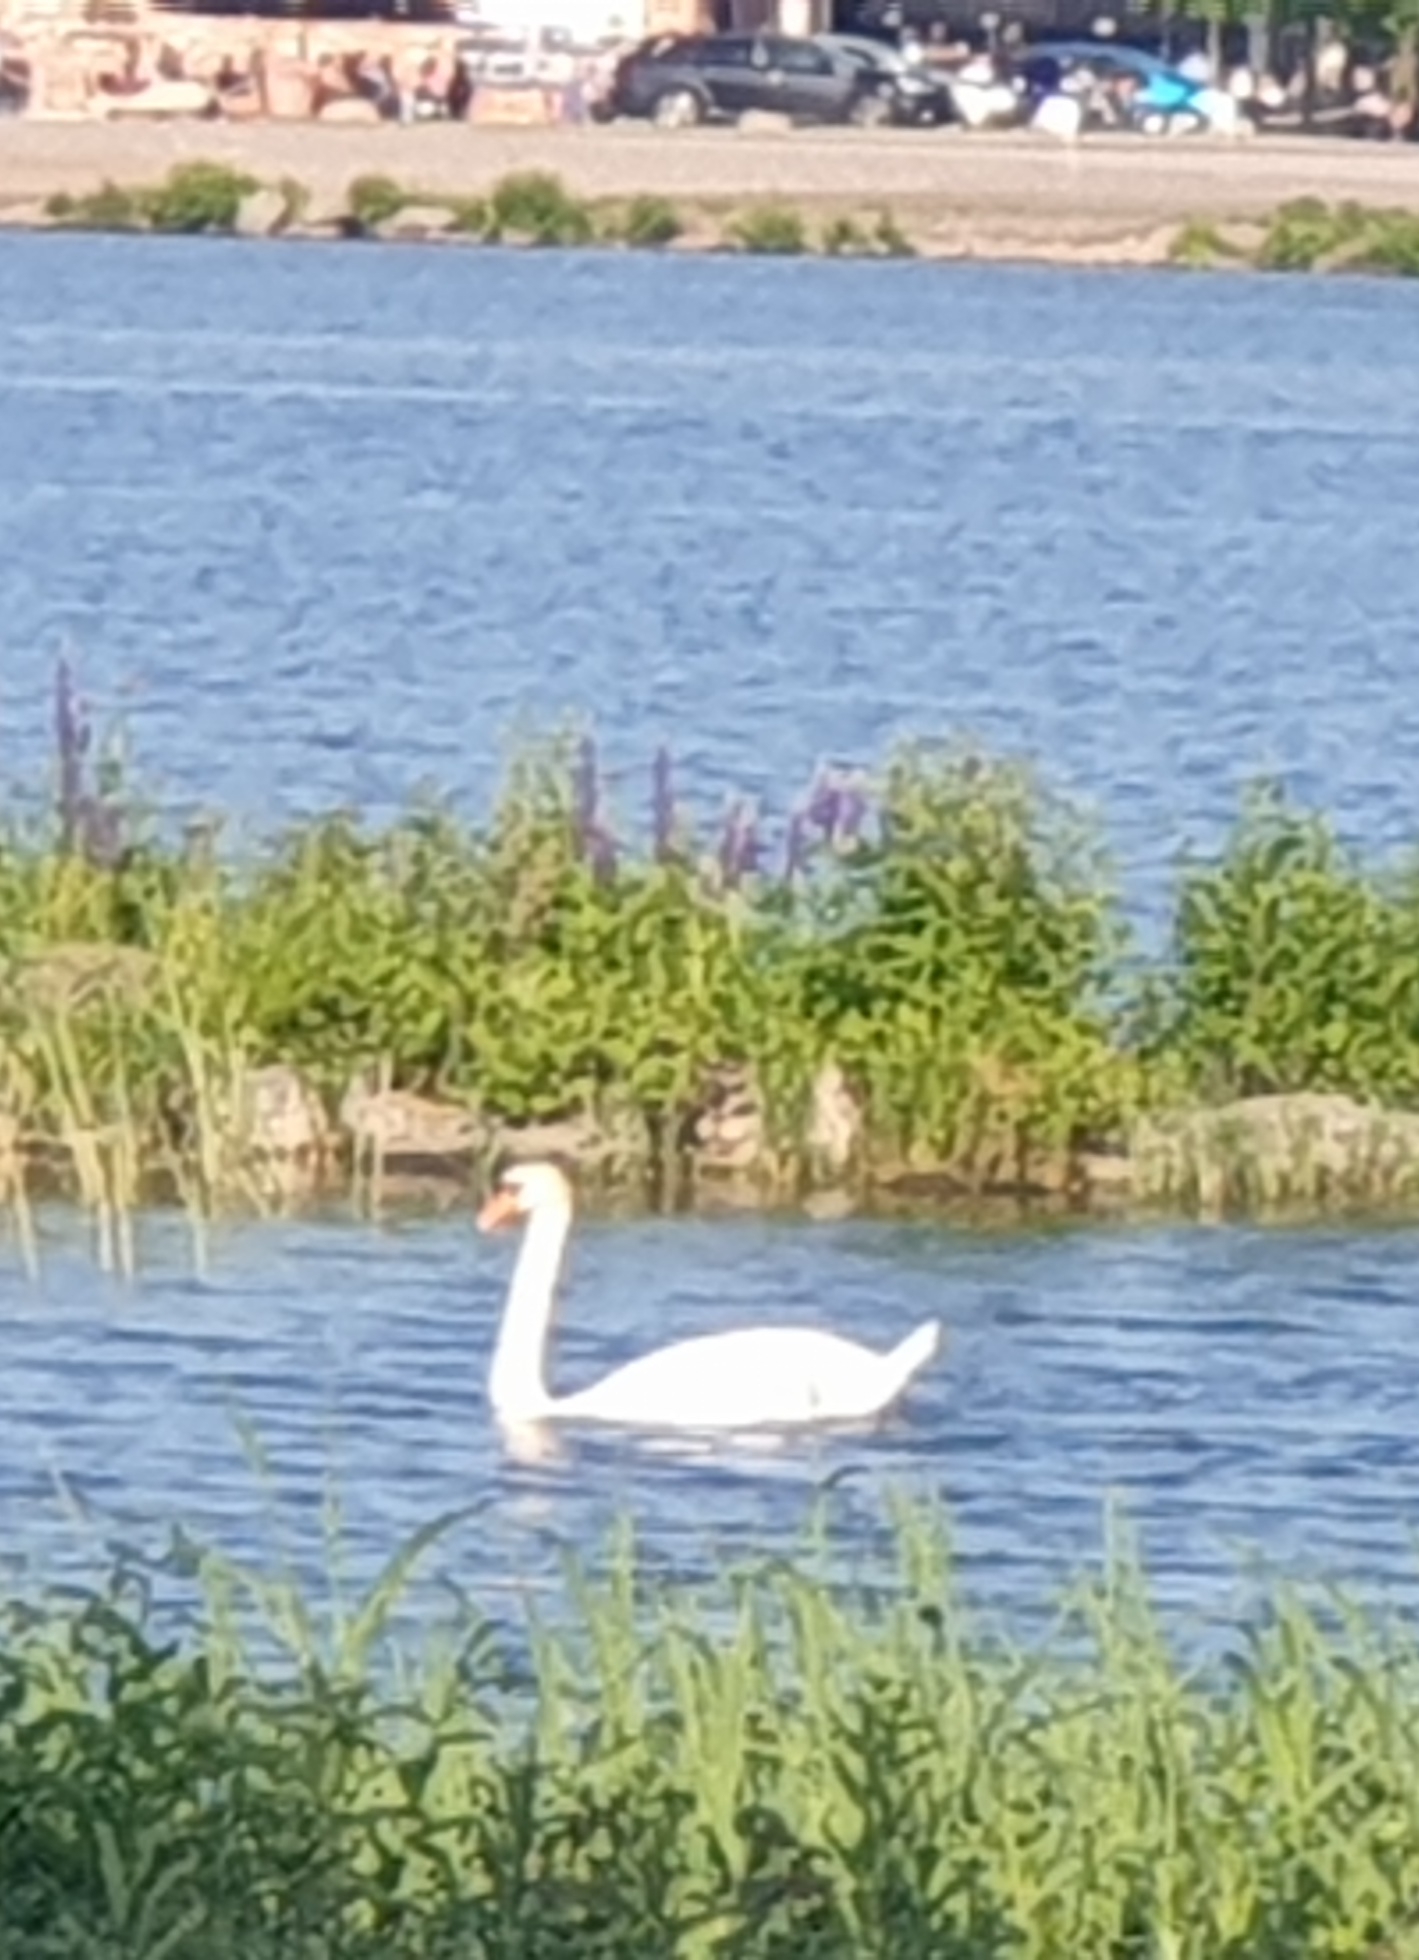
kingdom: Animalia
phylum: Chordata
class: Aves
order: Anseriformes
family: Anatidae
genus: Cygnus
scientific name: Cygnus olor
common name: Mute swan
